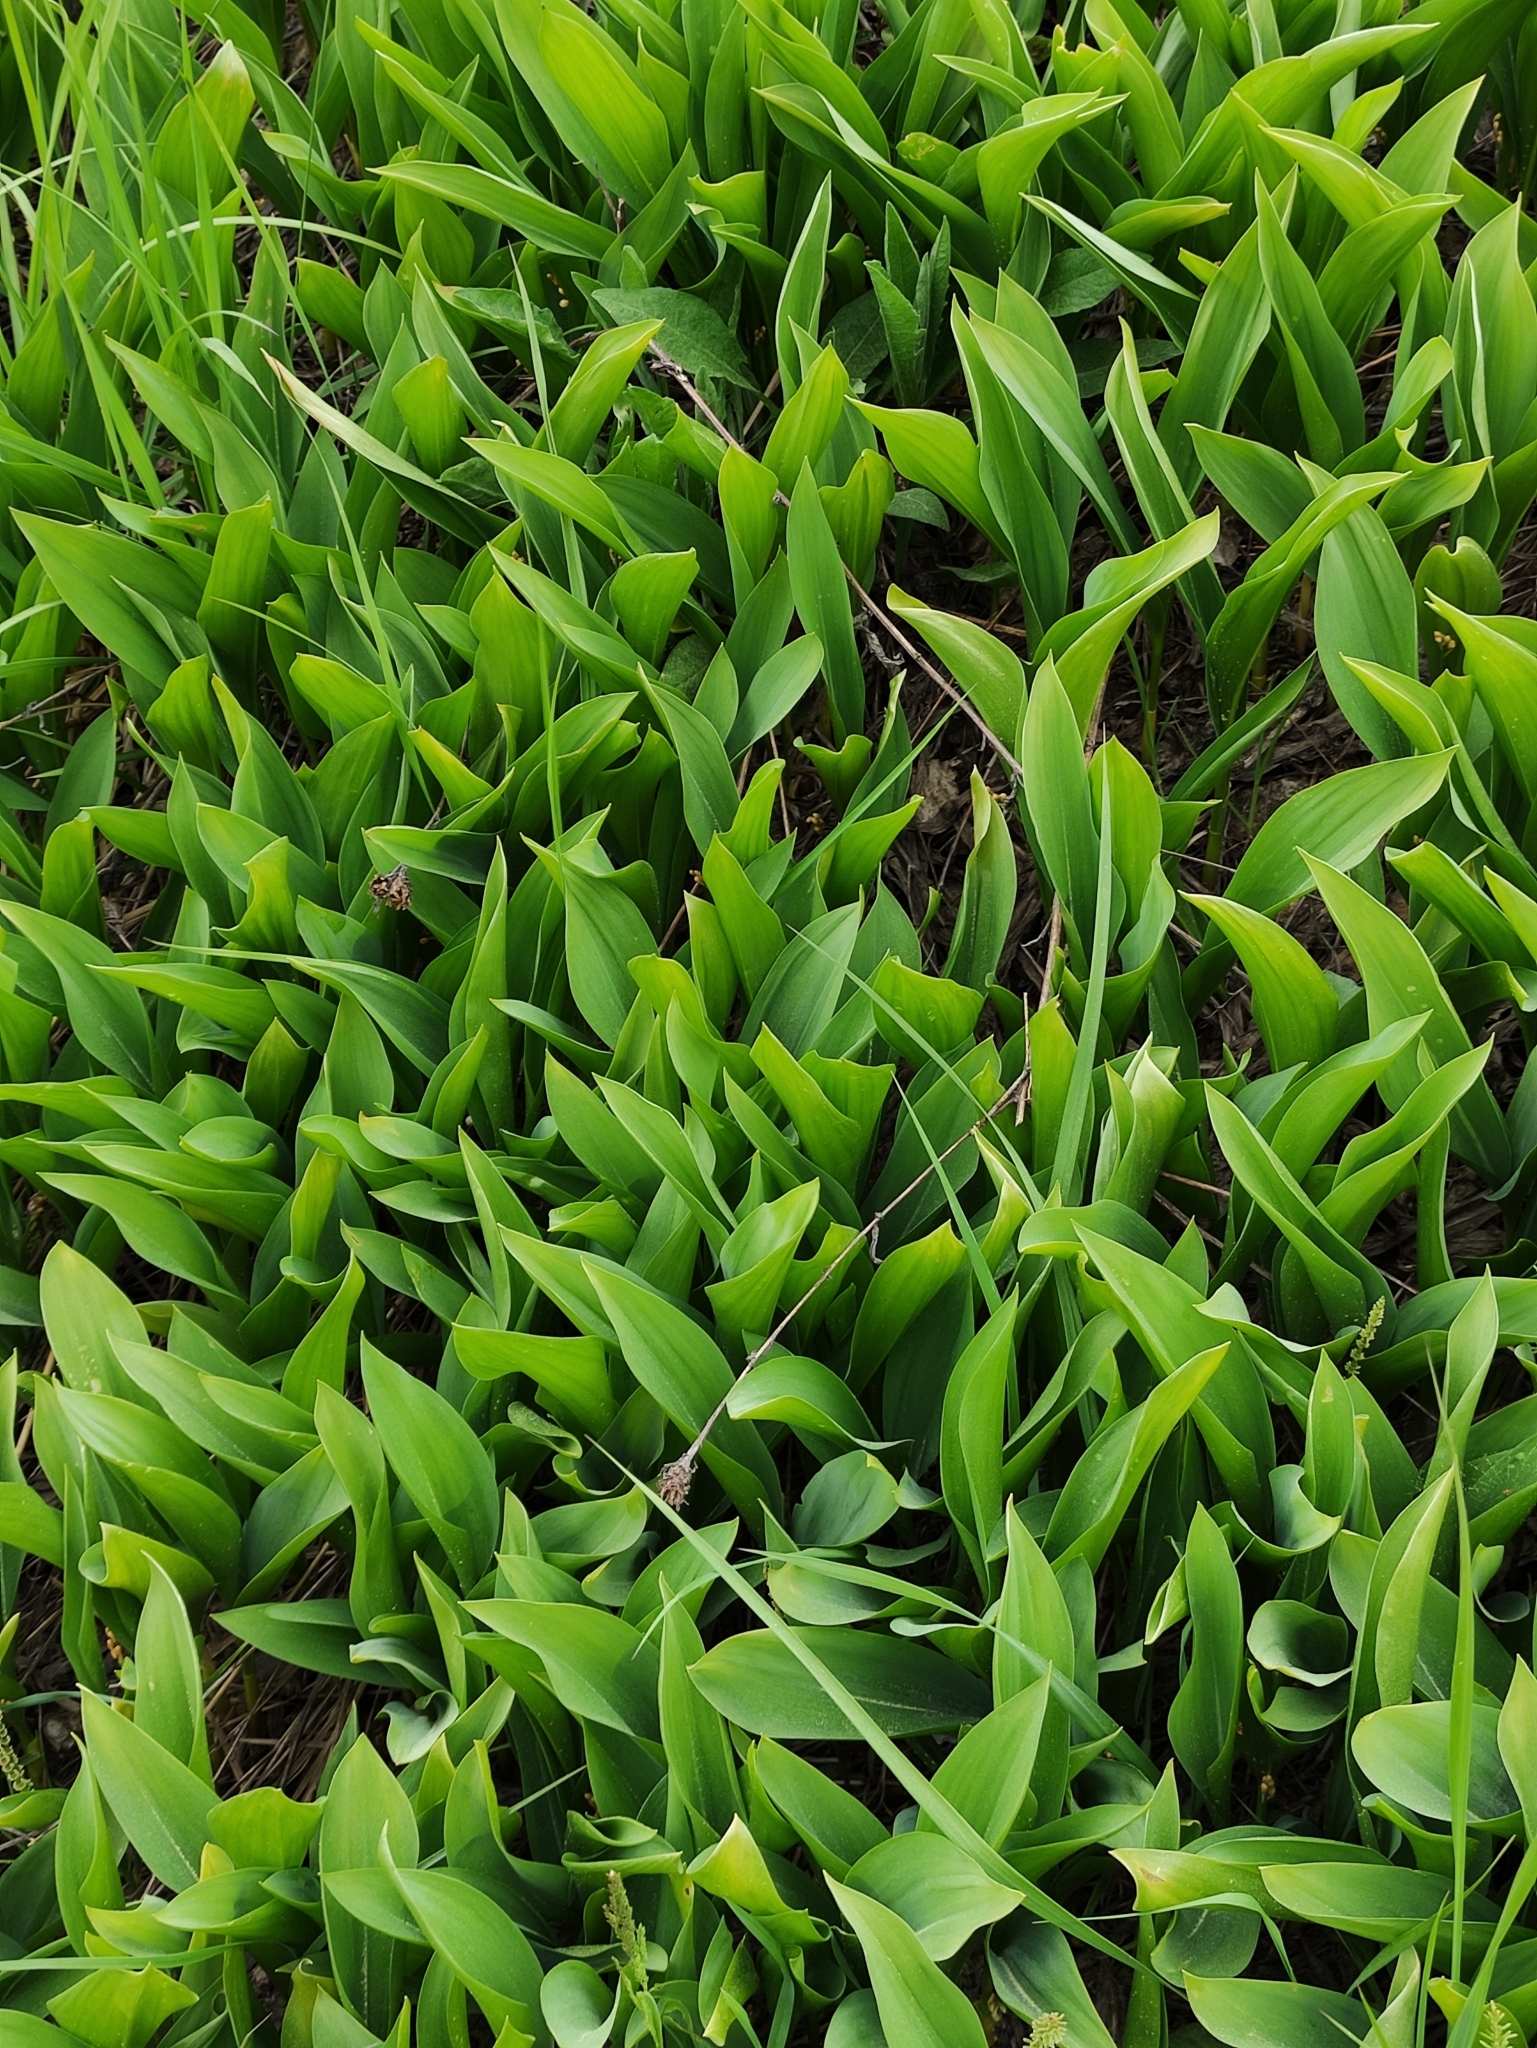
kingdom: Plantae
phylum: Tracheophyta
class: Liliopsida
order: Asparagales
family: Asparagaceae
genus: Convallaria
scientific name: Convallaria majalis
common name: Lily-of-the-valley
